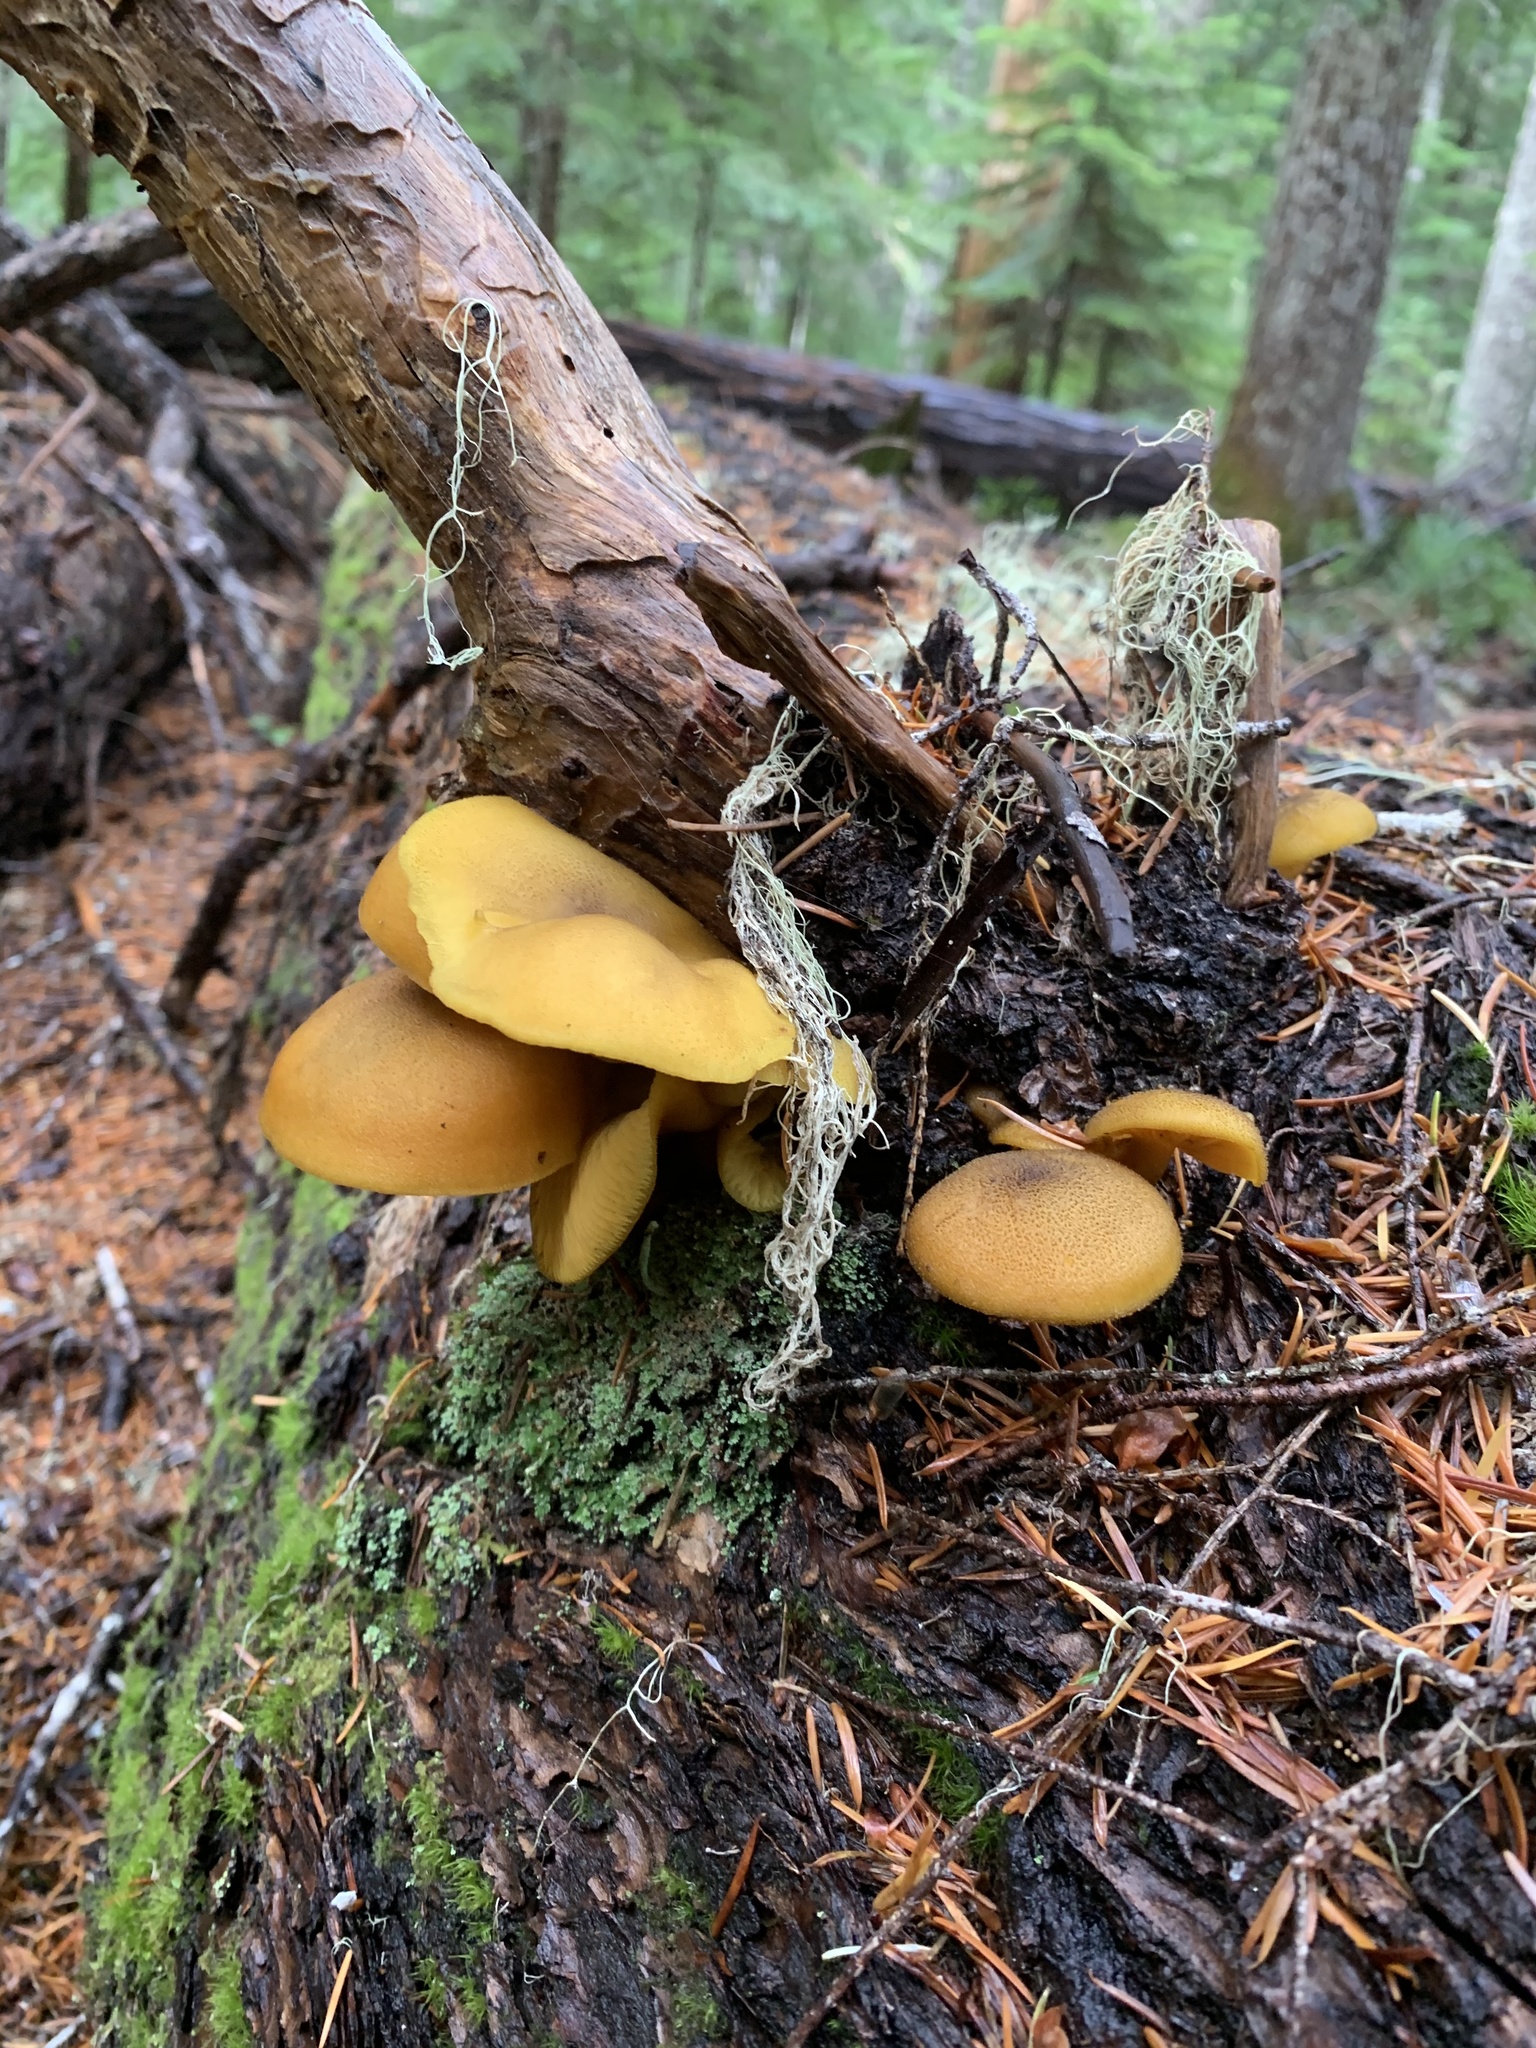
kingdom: Fungi
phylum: Basidiomycota
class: Agaricomycetes
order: Agaricales
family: Tricholomataceae
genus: Tricholomopsis
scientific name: Tricholomopsis decora
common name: Prunes and custard
